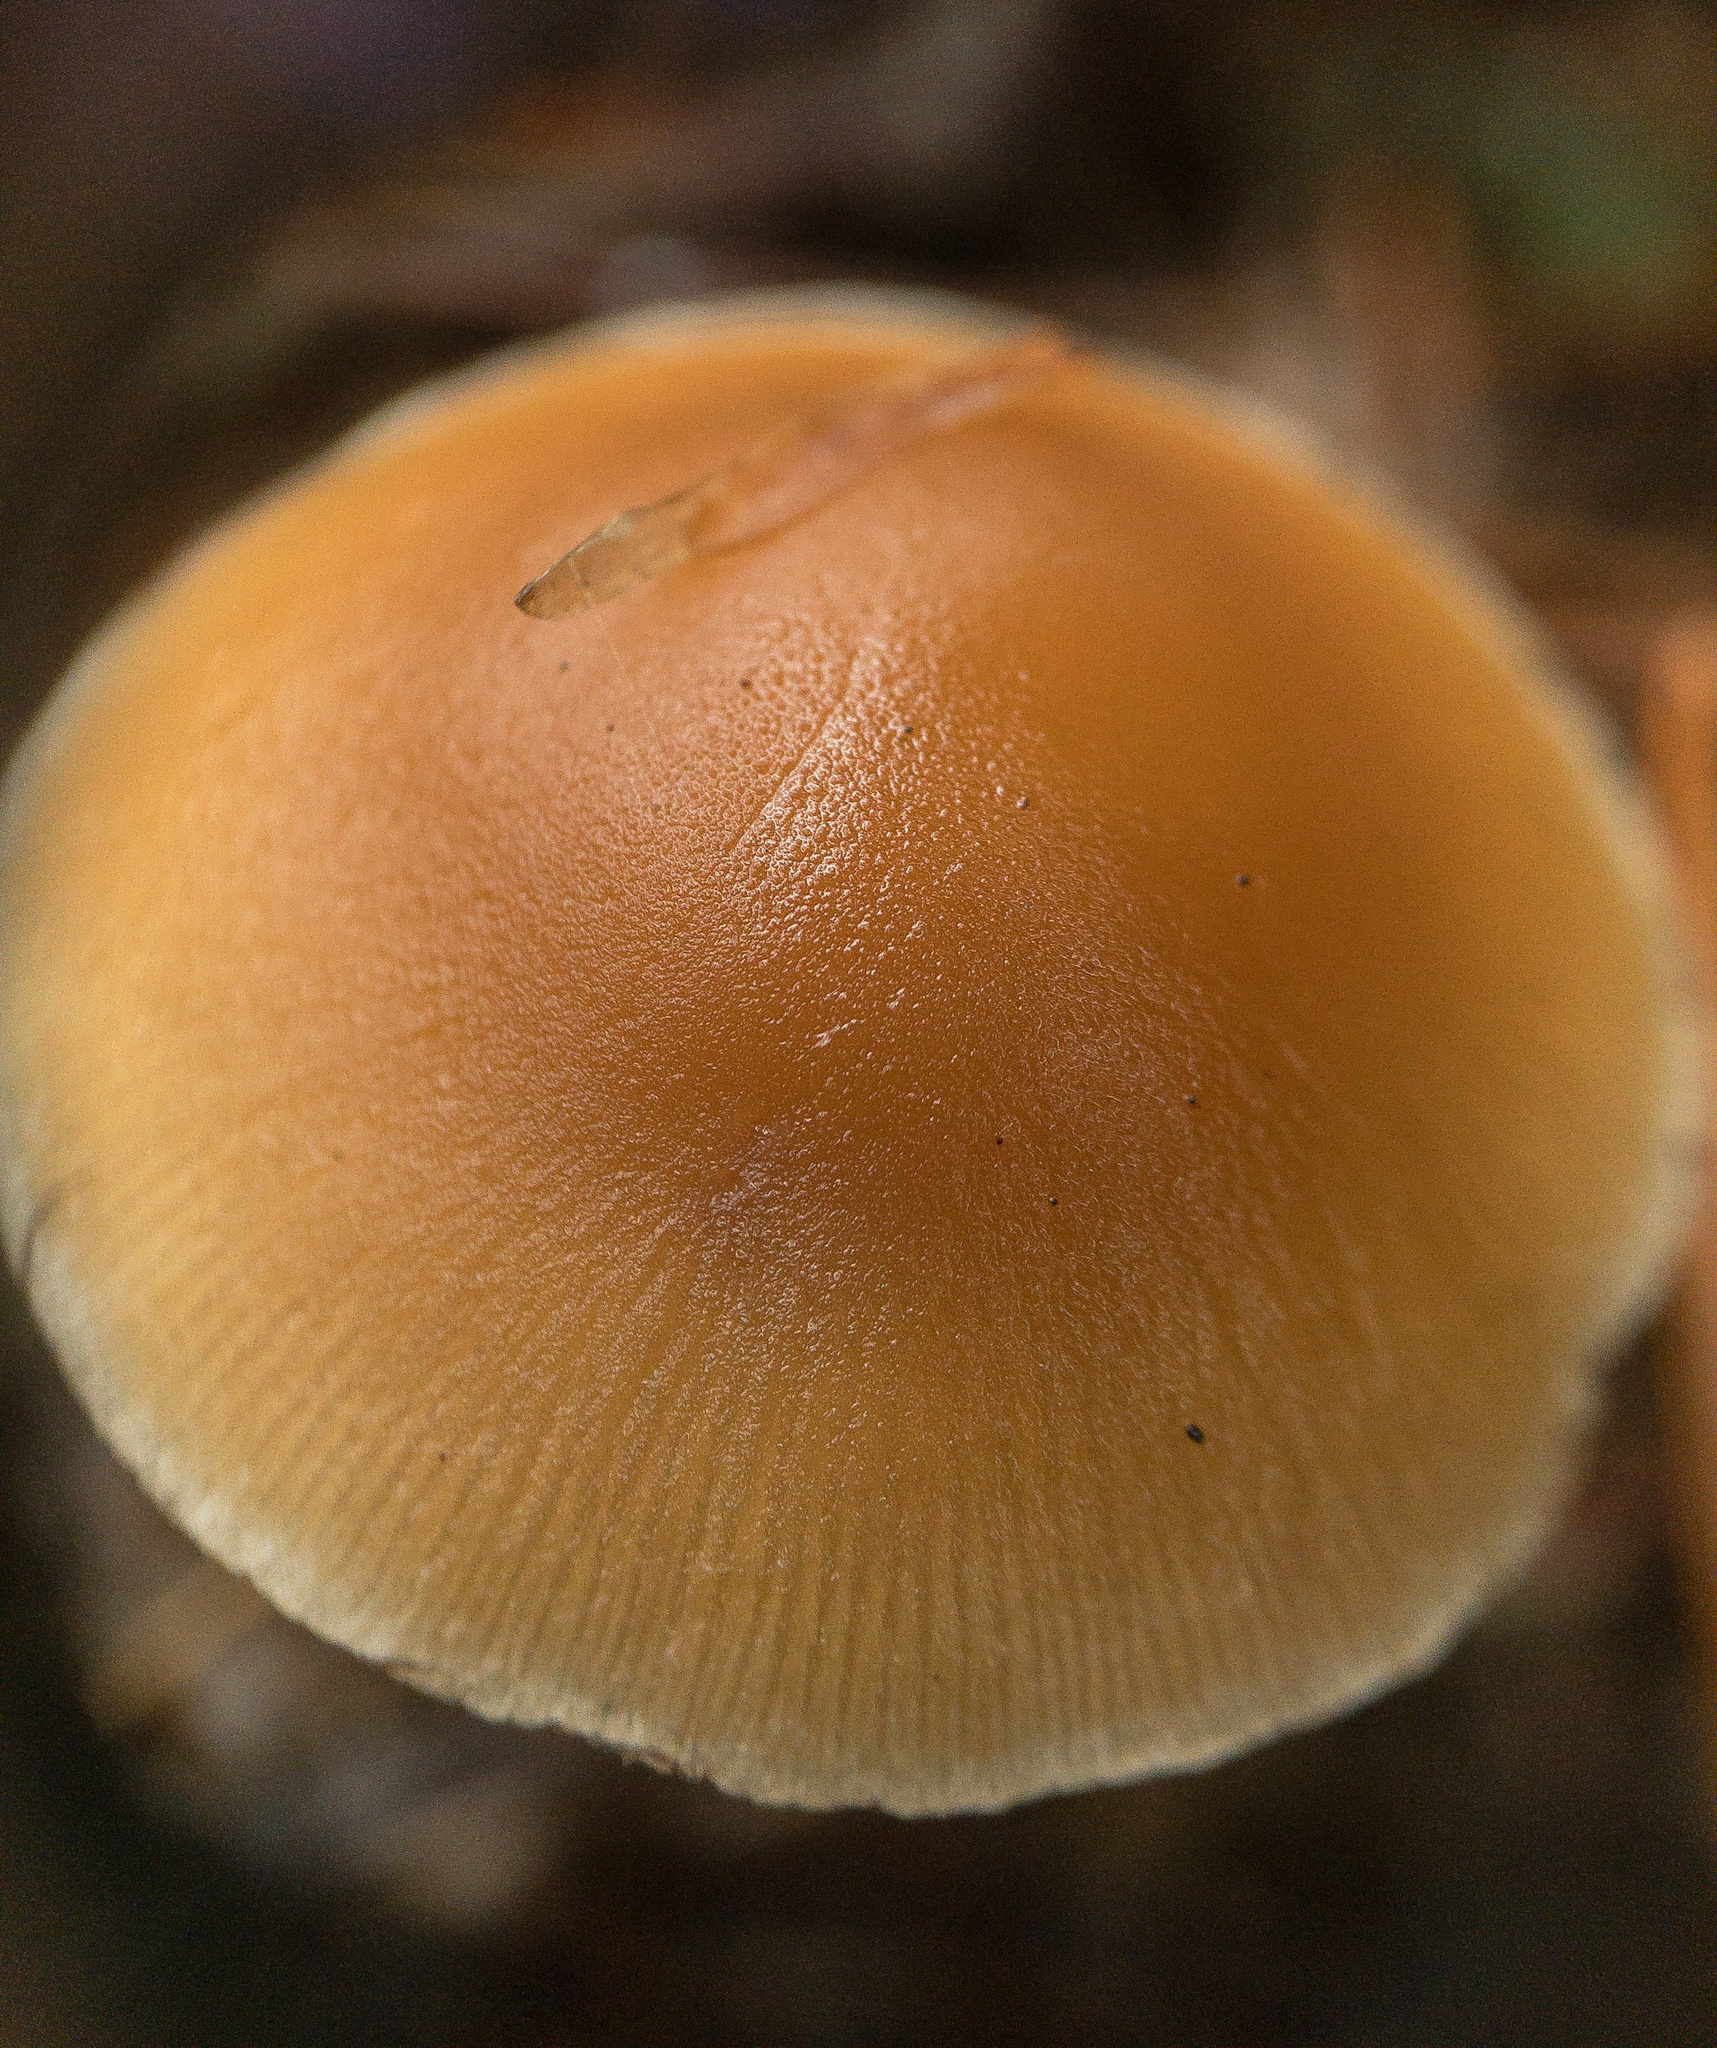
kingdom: Fungi
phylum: Basidiomycota
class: Agaricomycetes
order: Agaricales
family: Psathyrellaceae
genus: Britzelmayria
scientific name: Britzelmayria multipedata
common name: Clustered brittlestem
